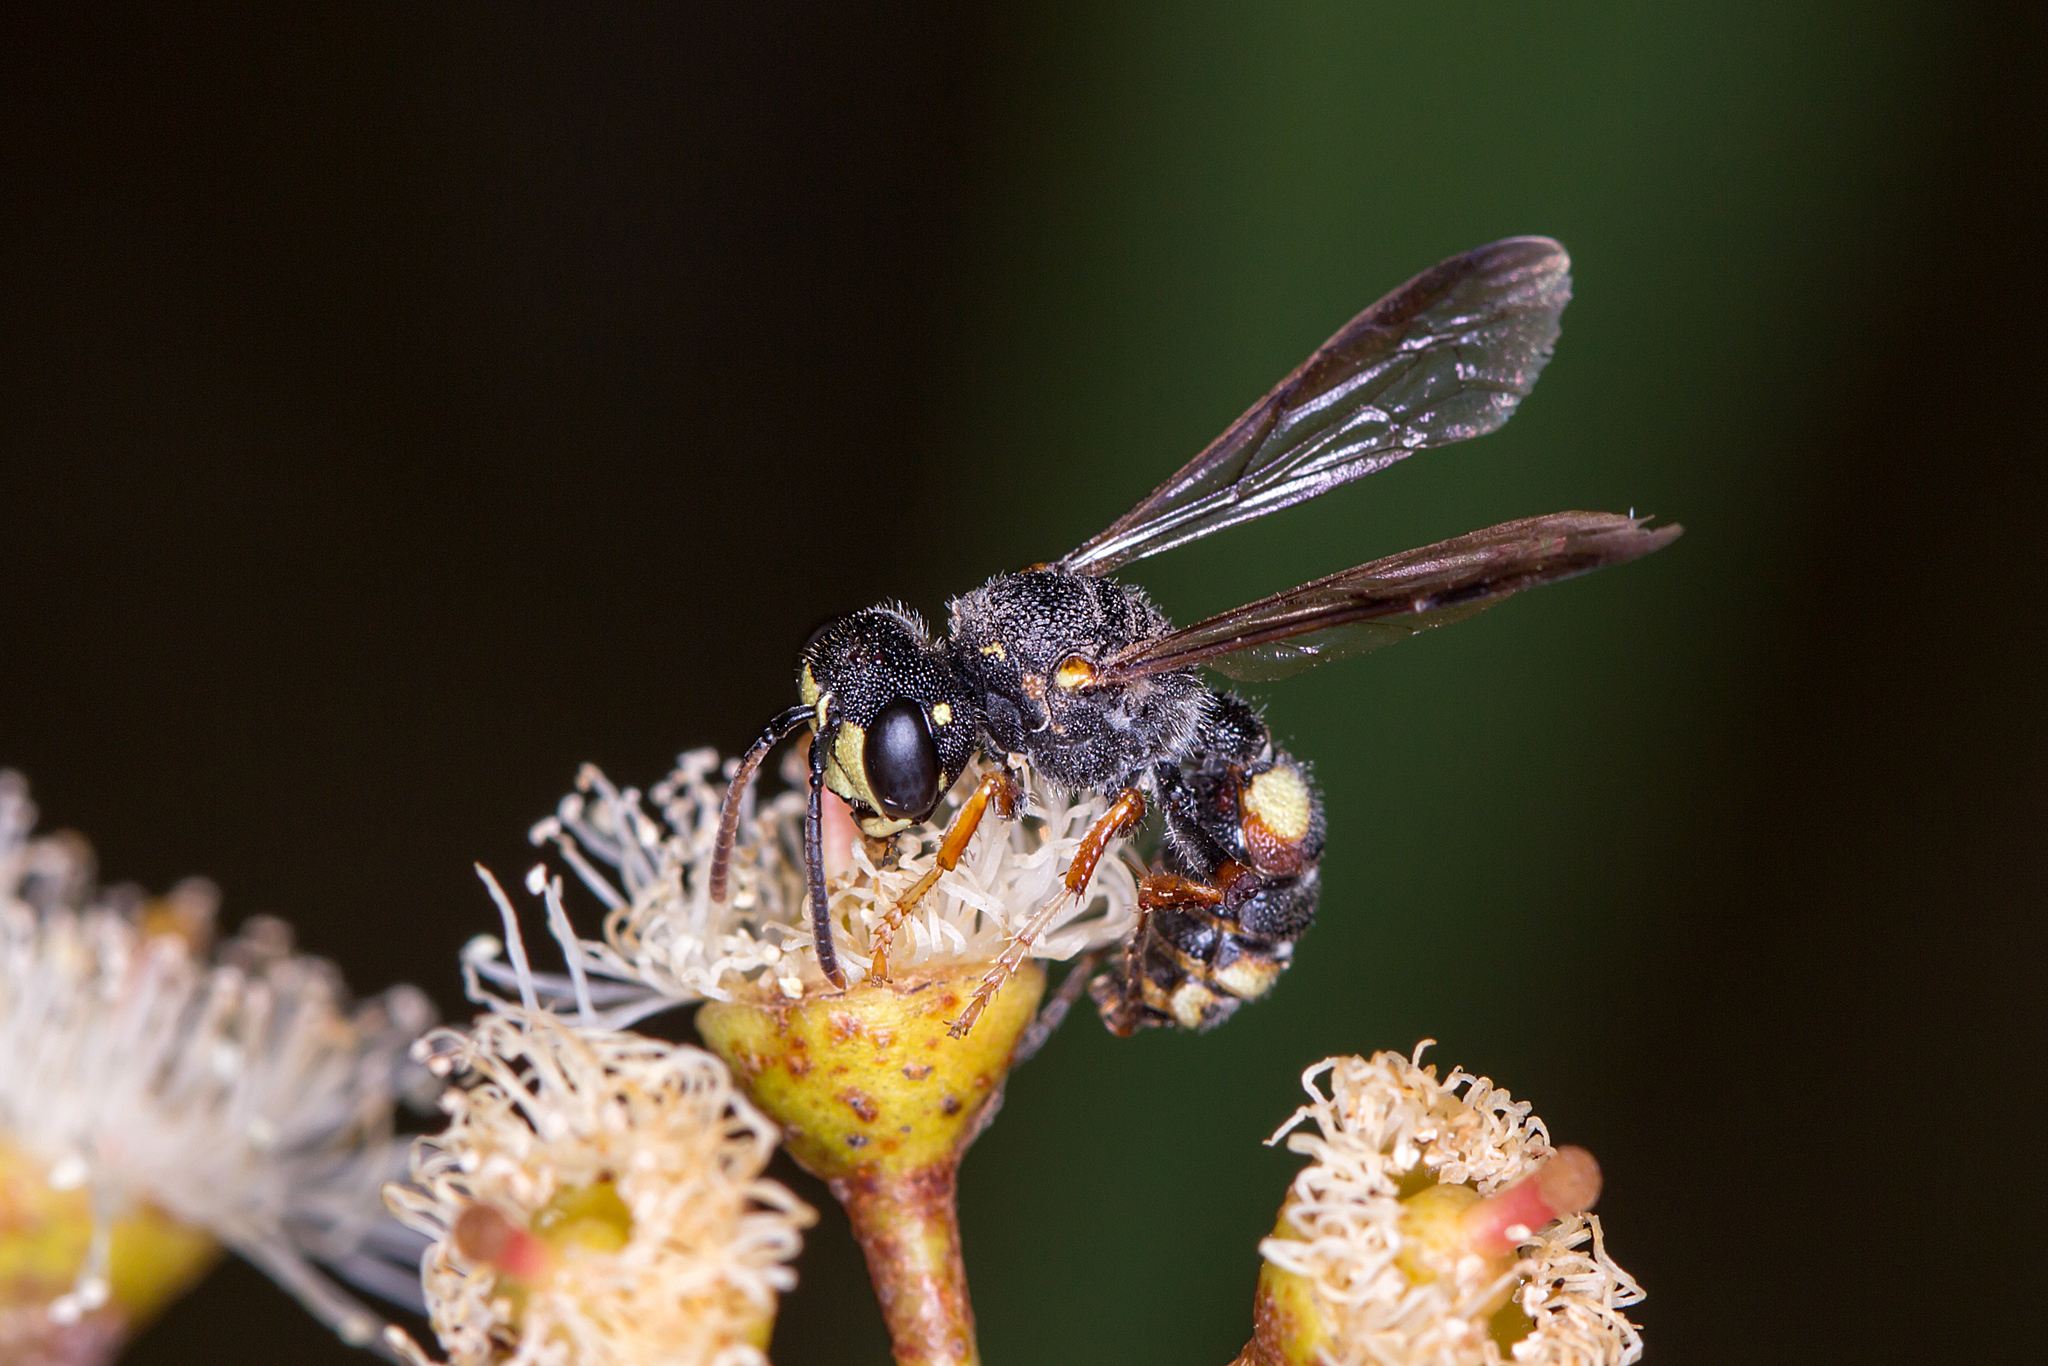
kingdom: Animalia
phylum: Arthropoda
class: Insecta
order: Hymenoptera
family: Crabronidae
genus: Cerceris
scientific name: Cerceris antipodes
